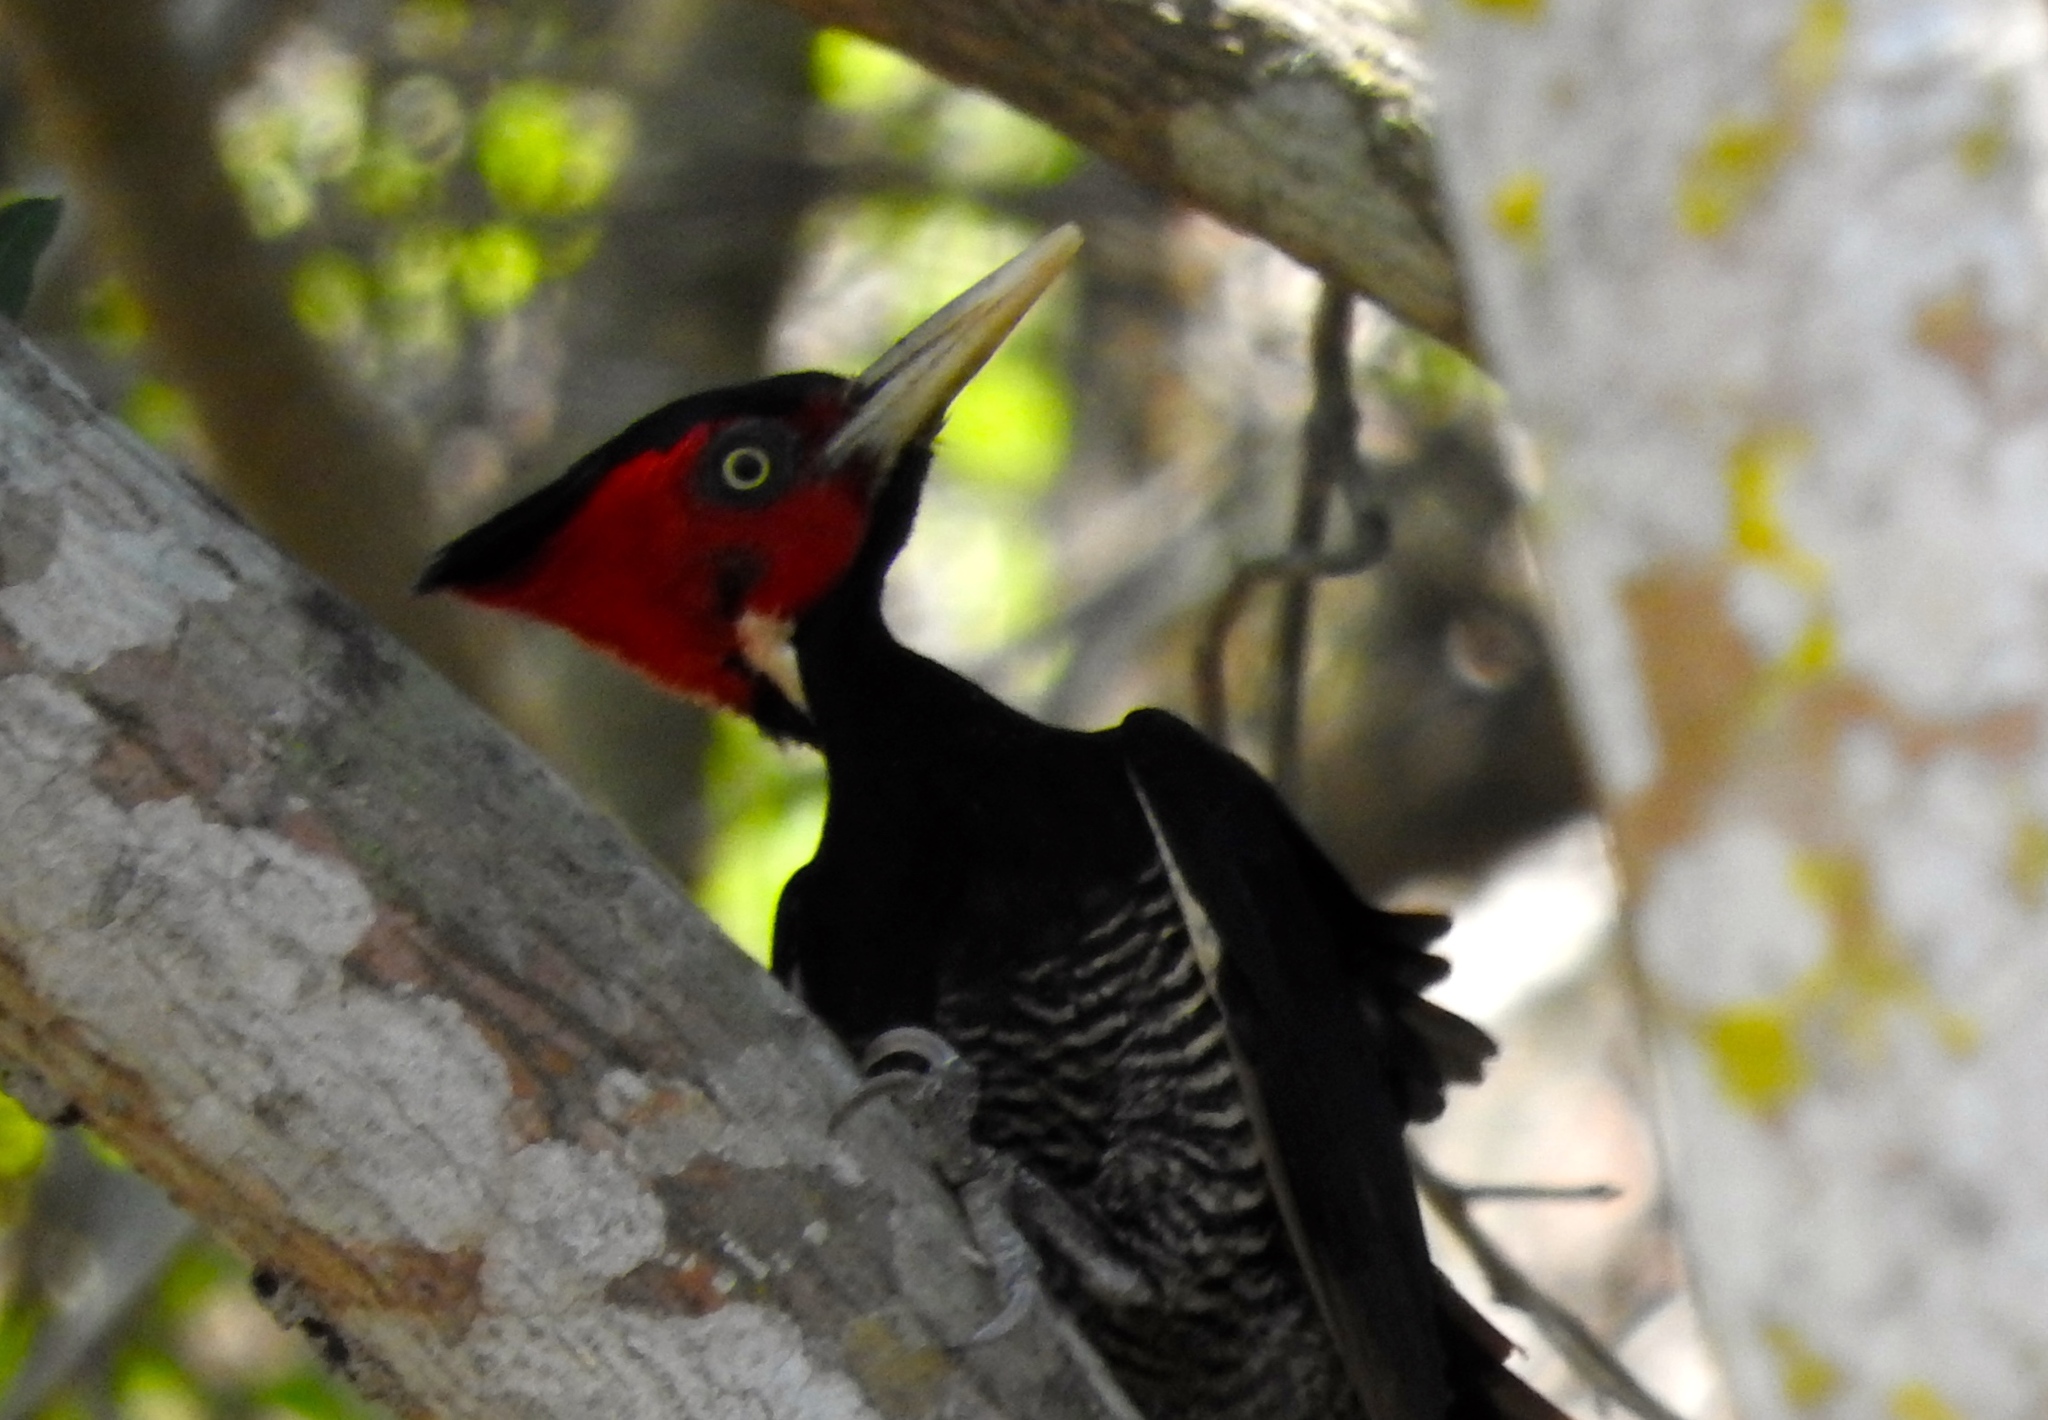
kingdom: Animalia
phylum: Chordata
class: Aves
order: Piciformes
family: Picidae
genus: Campephilus
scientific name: Campephilus guatemalensis
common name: Pale-billed woodpecker
